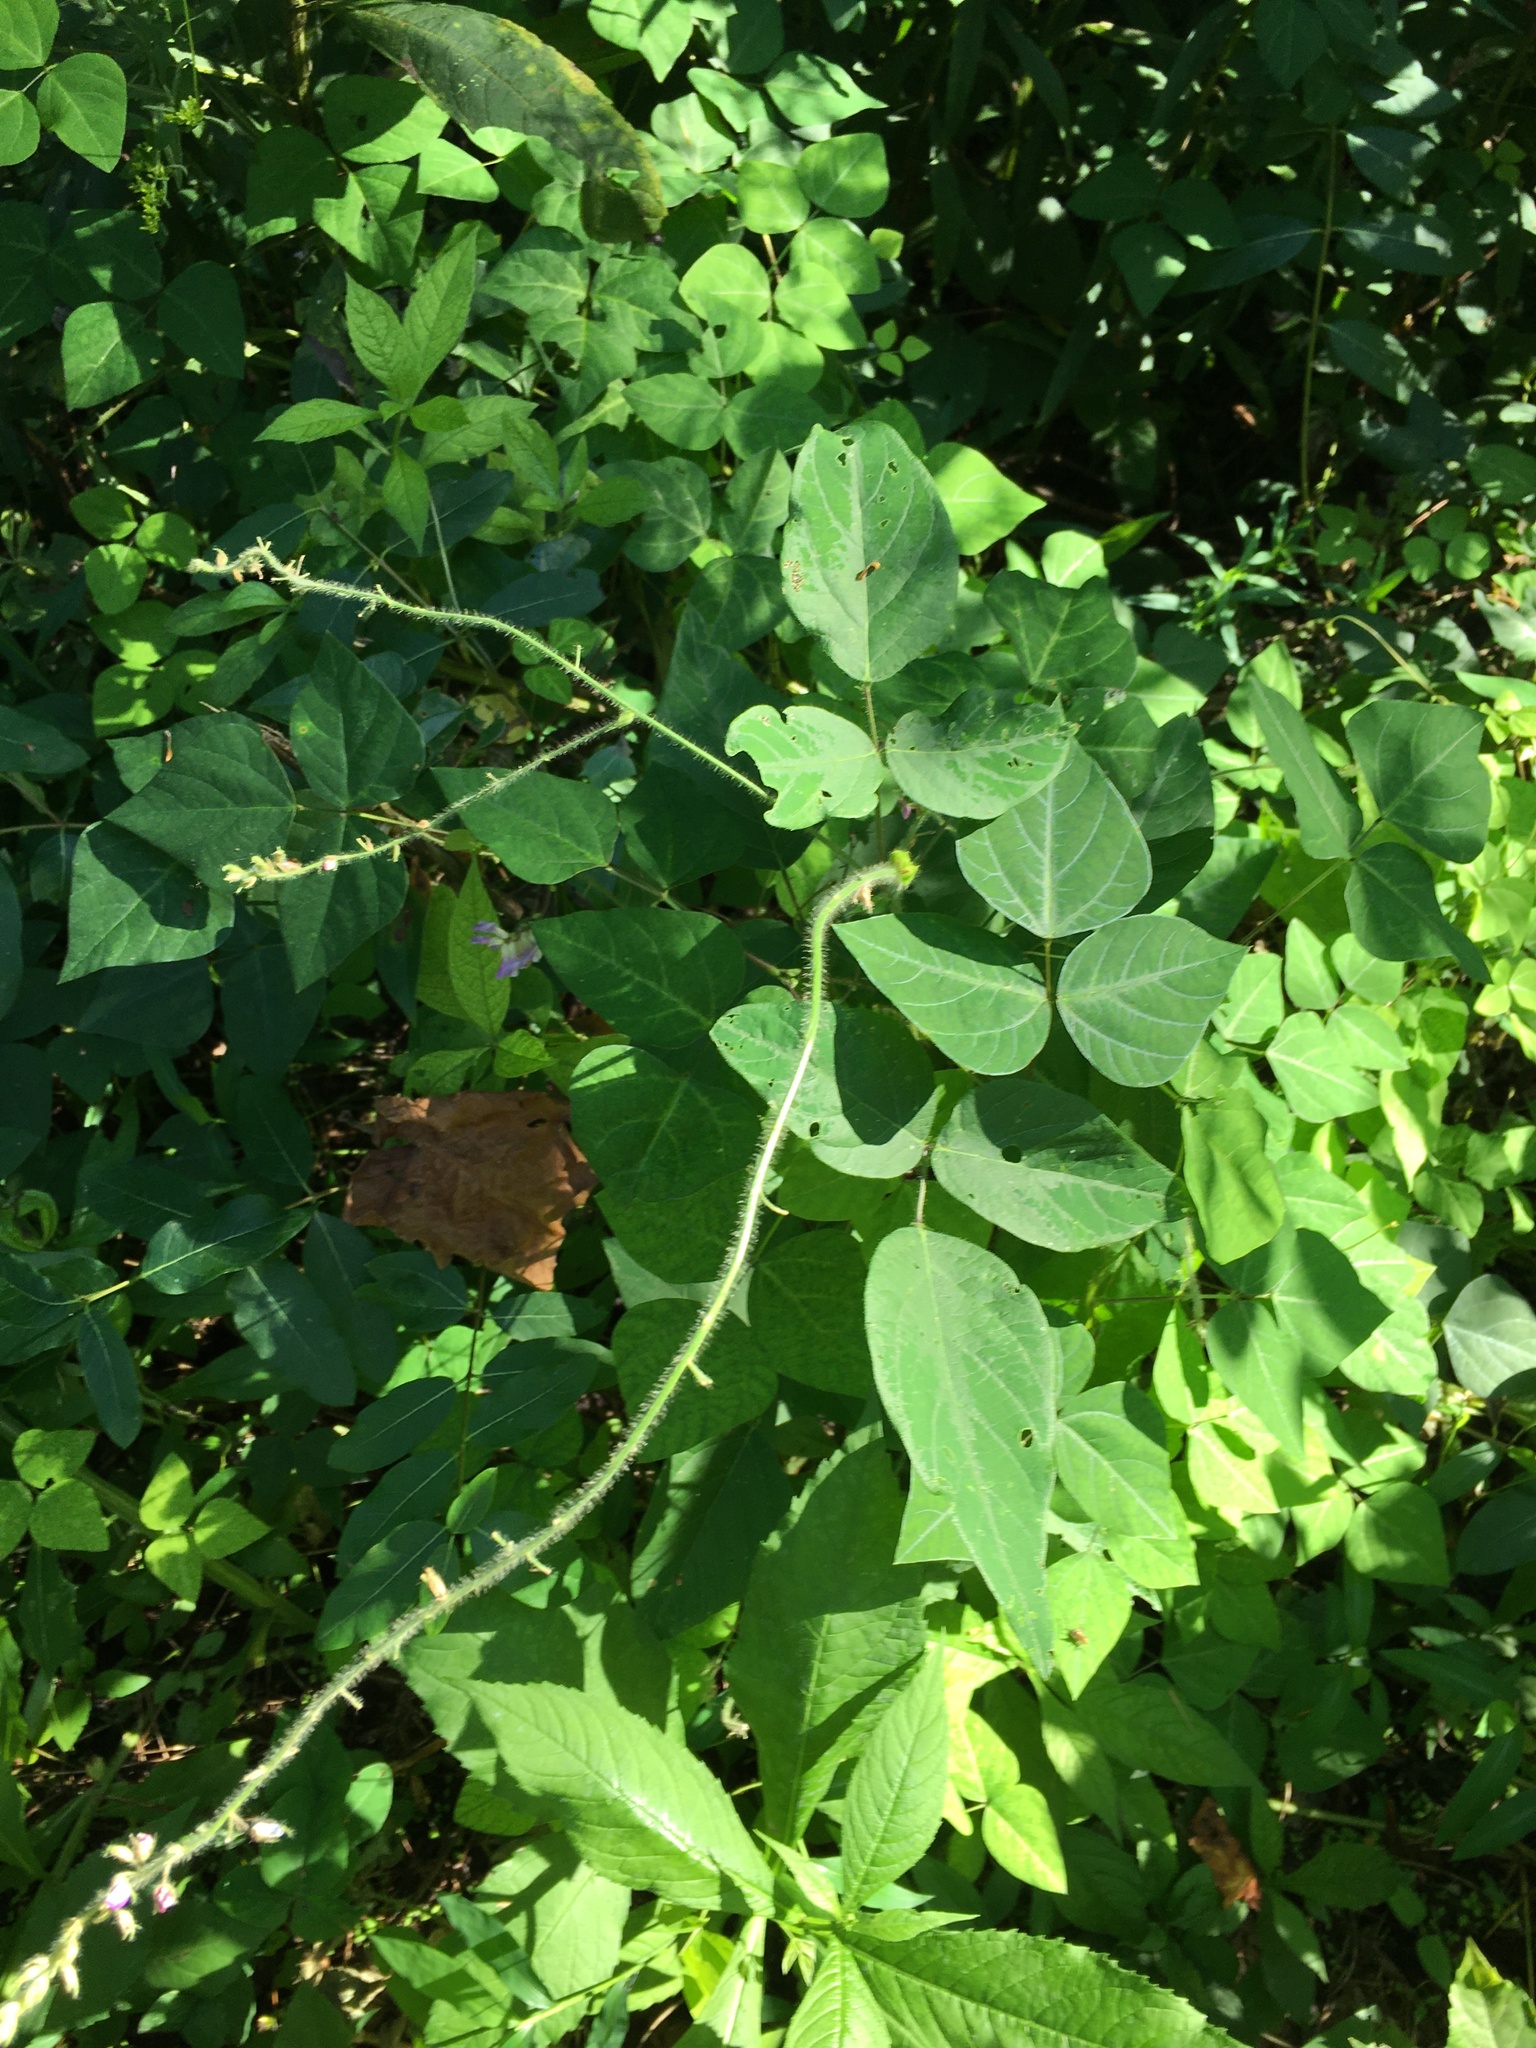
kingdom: Plantae
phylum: Tracheophyta
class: Magnoliopsida
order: Fabales
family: Fabaceae
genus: Amphicarpaea
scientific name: Amphicarpaea bracteata
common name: American hog peanut
